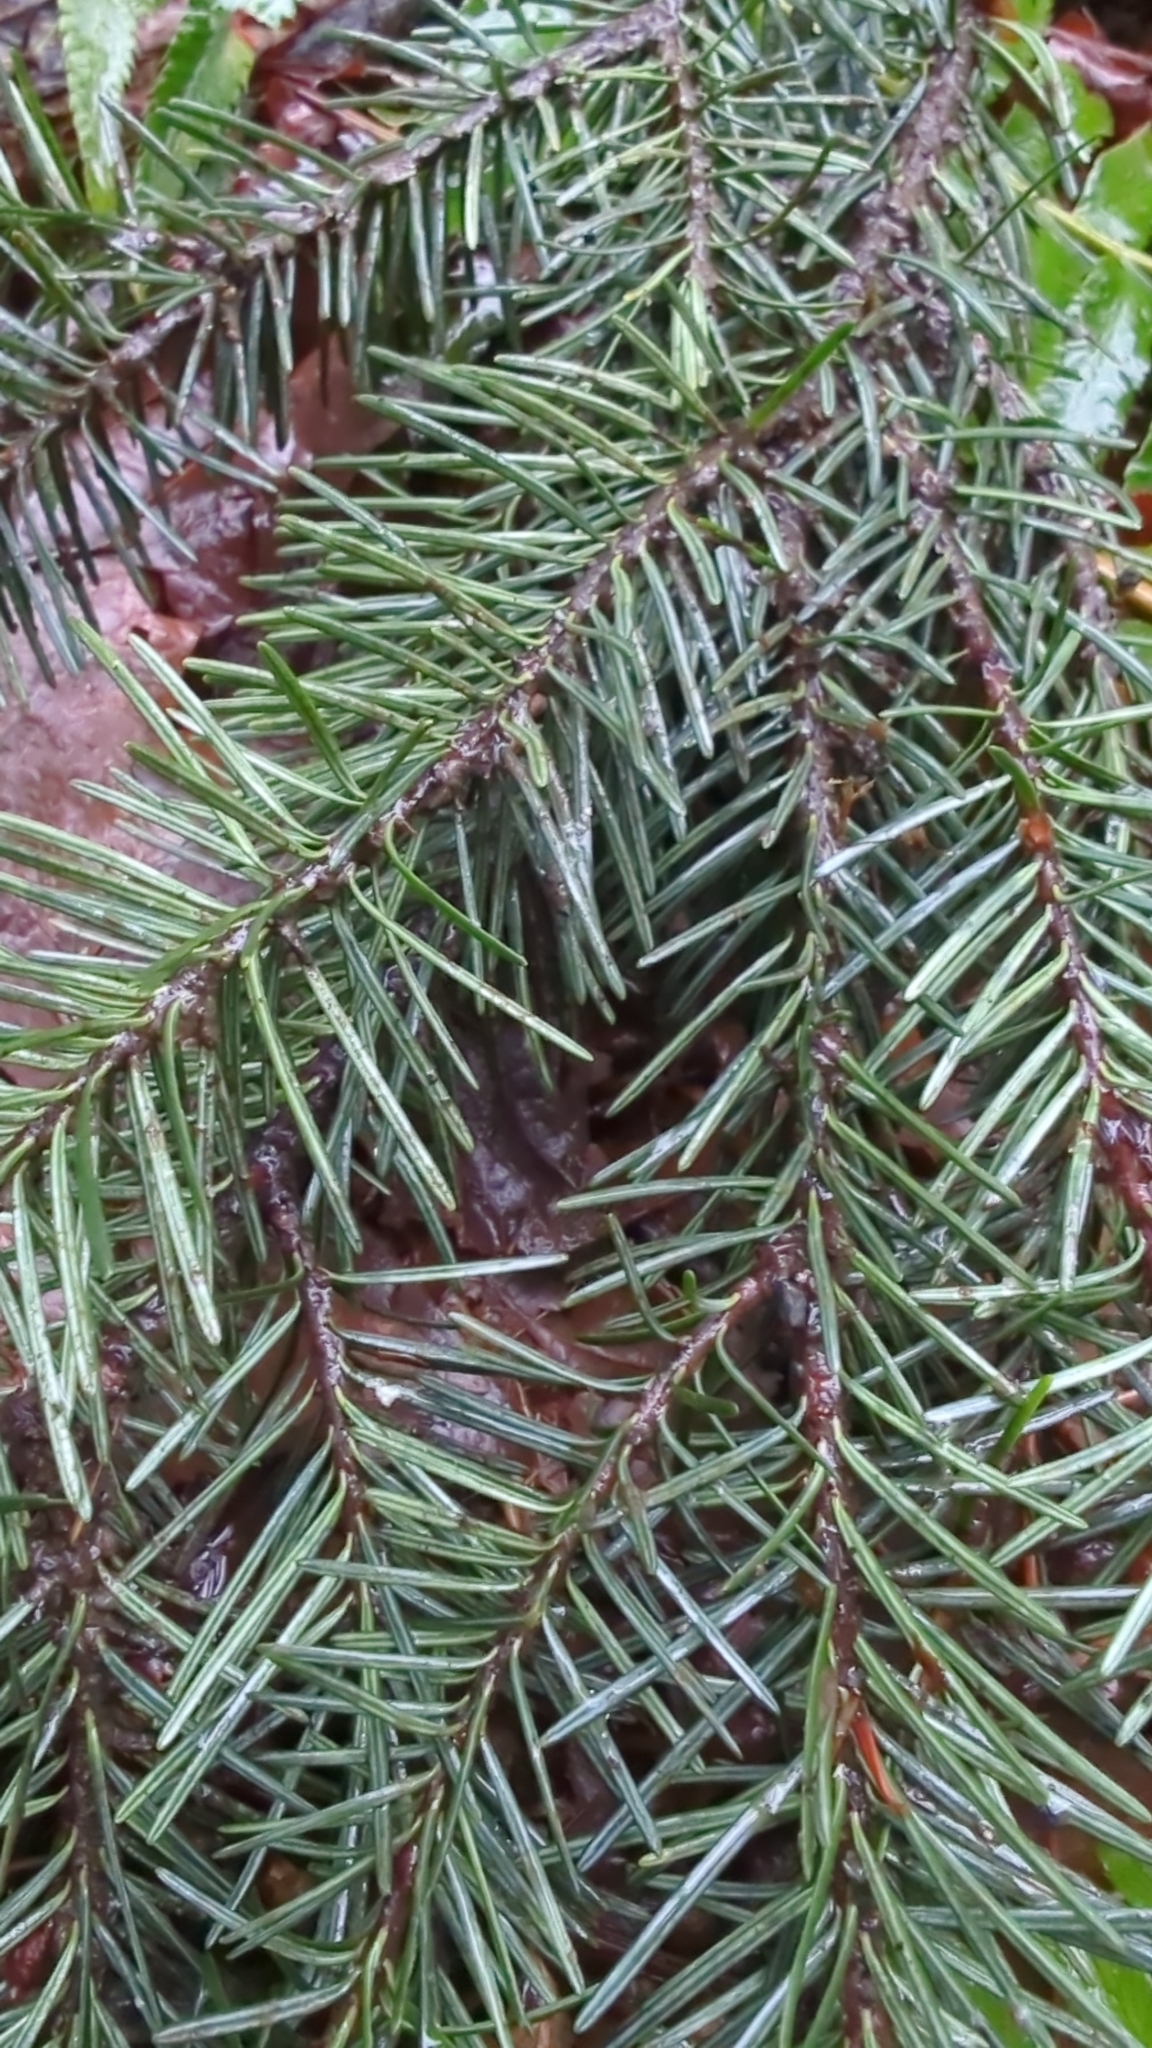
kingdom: Plantae
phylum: Tracheophyta
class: Pinopsida
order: Pinales
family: Pinaceae
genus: Pseudotsuga
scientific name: Pseudotsuga menziesii
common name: Douglas fir
